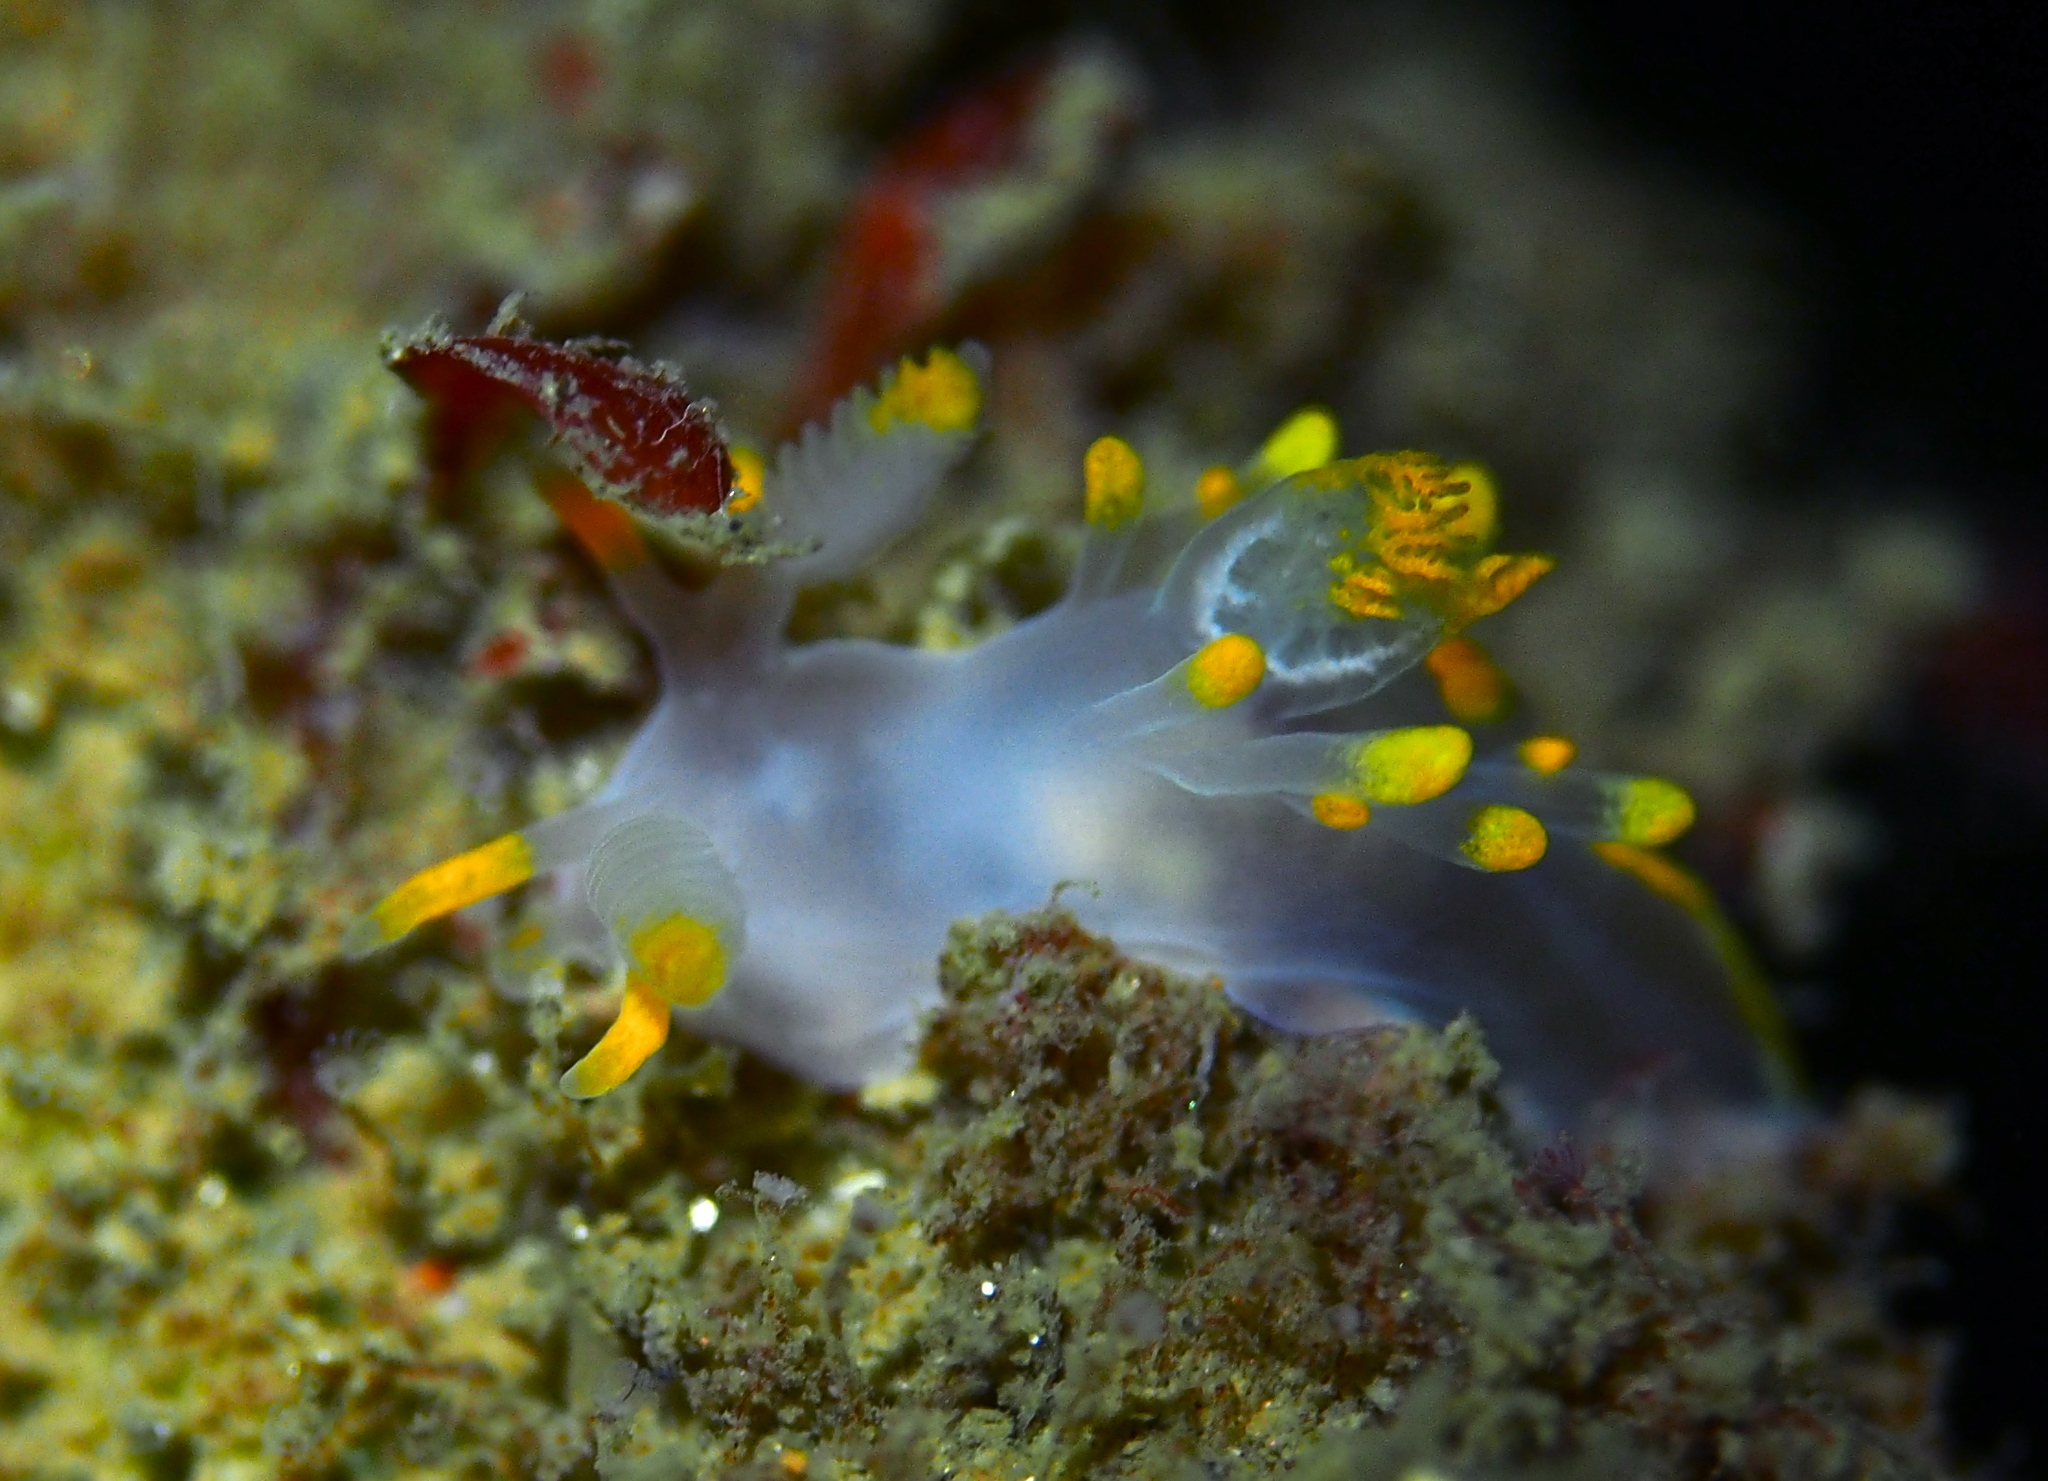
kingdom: Animalia
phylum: Mollusca
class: Gastropoda
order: Nudibranchia
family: Goniodorididae
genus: Ancula
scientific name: Ancula gibbosa
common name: Atlantic ancula
